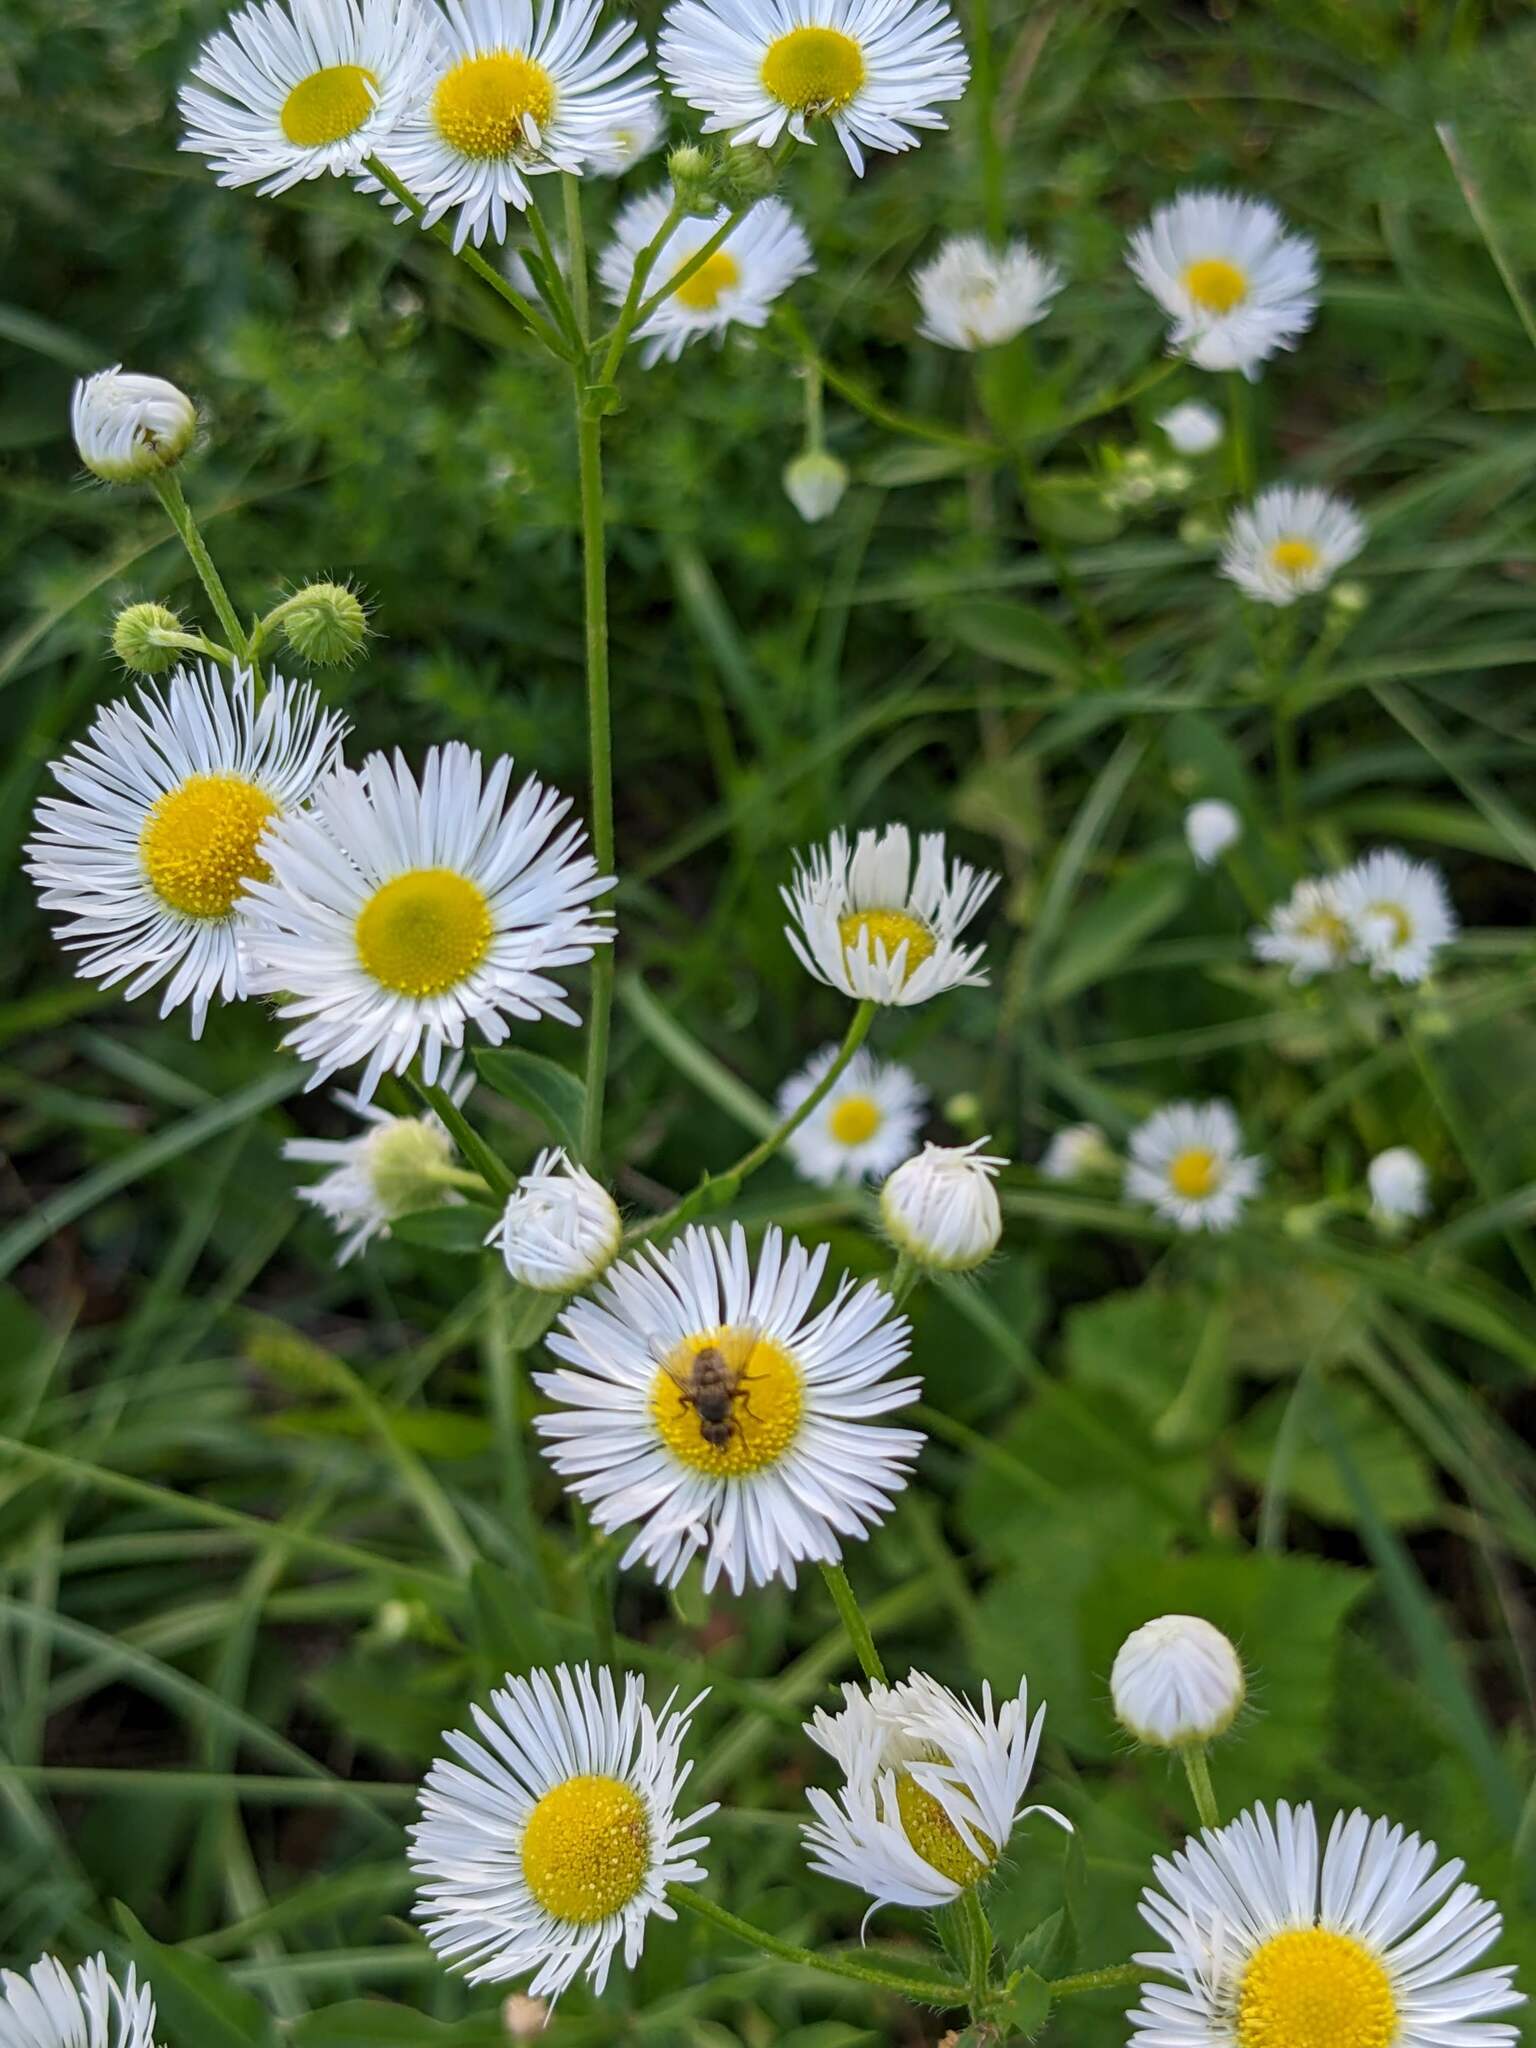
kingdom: Plantae
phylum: Tracheophyta
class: Magnoliopsida
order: Asterales
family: Asteraceae
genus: Erigeron
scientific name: Erigeron annuus
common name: Tall fleabane
